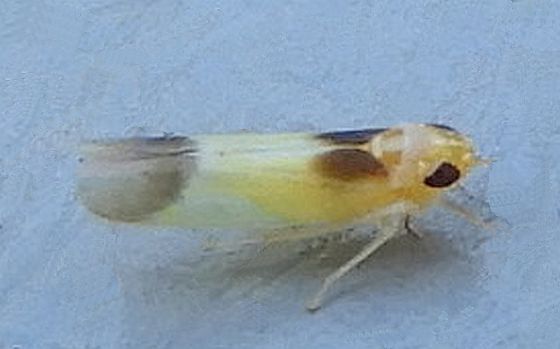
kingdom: Animalia
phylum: Arthropoda
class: Insecta
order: Hemiptera
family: Cicadellidae
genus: Empoasca
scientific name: Empoasca
